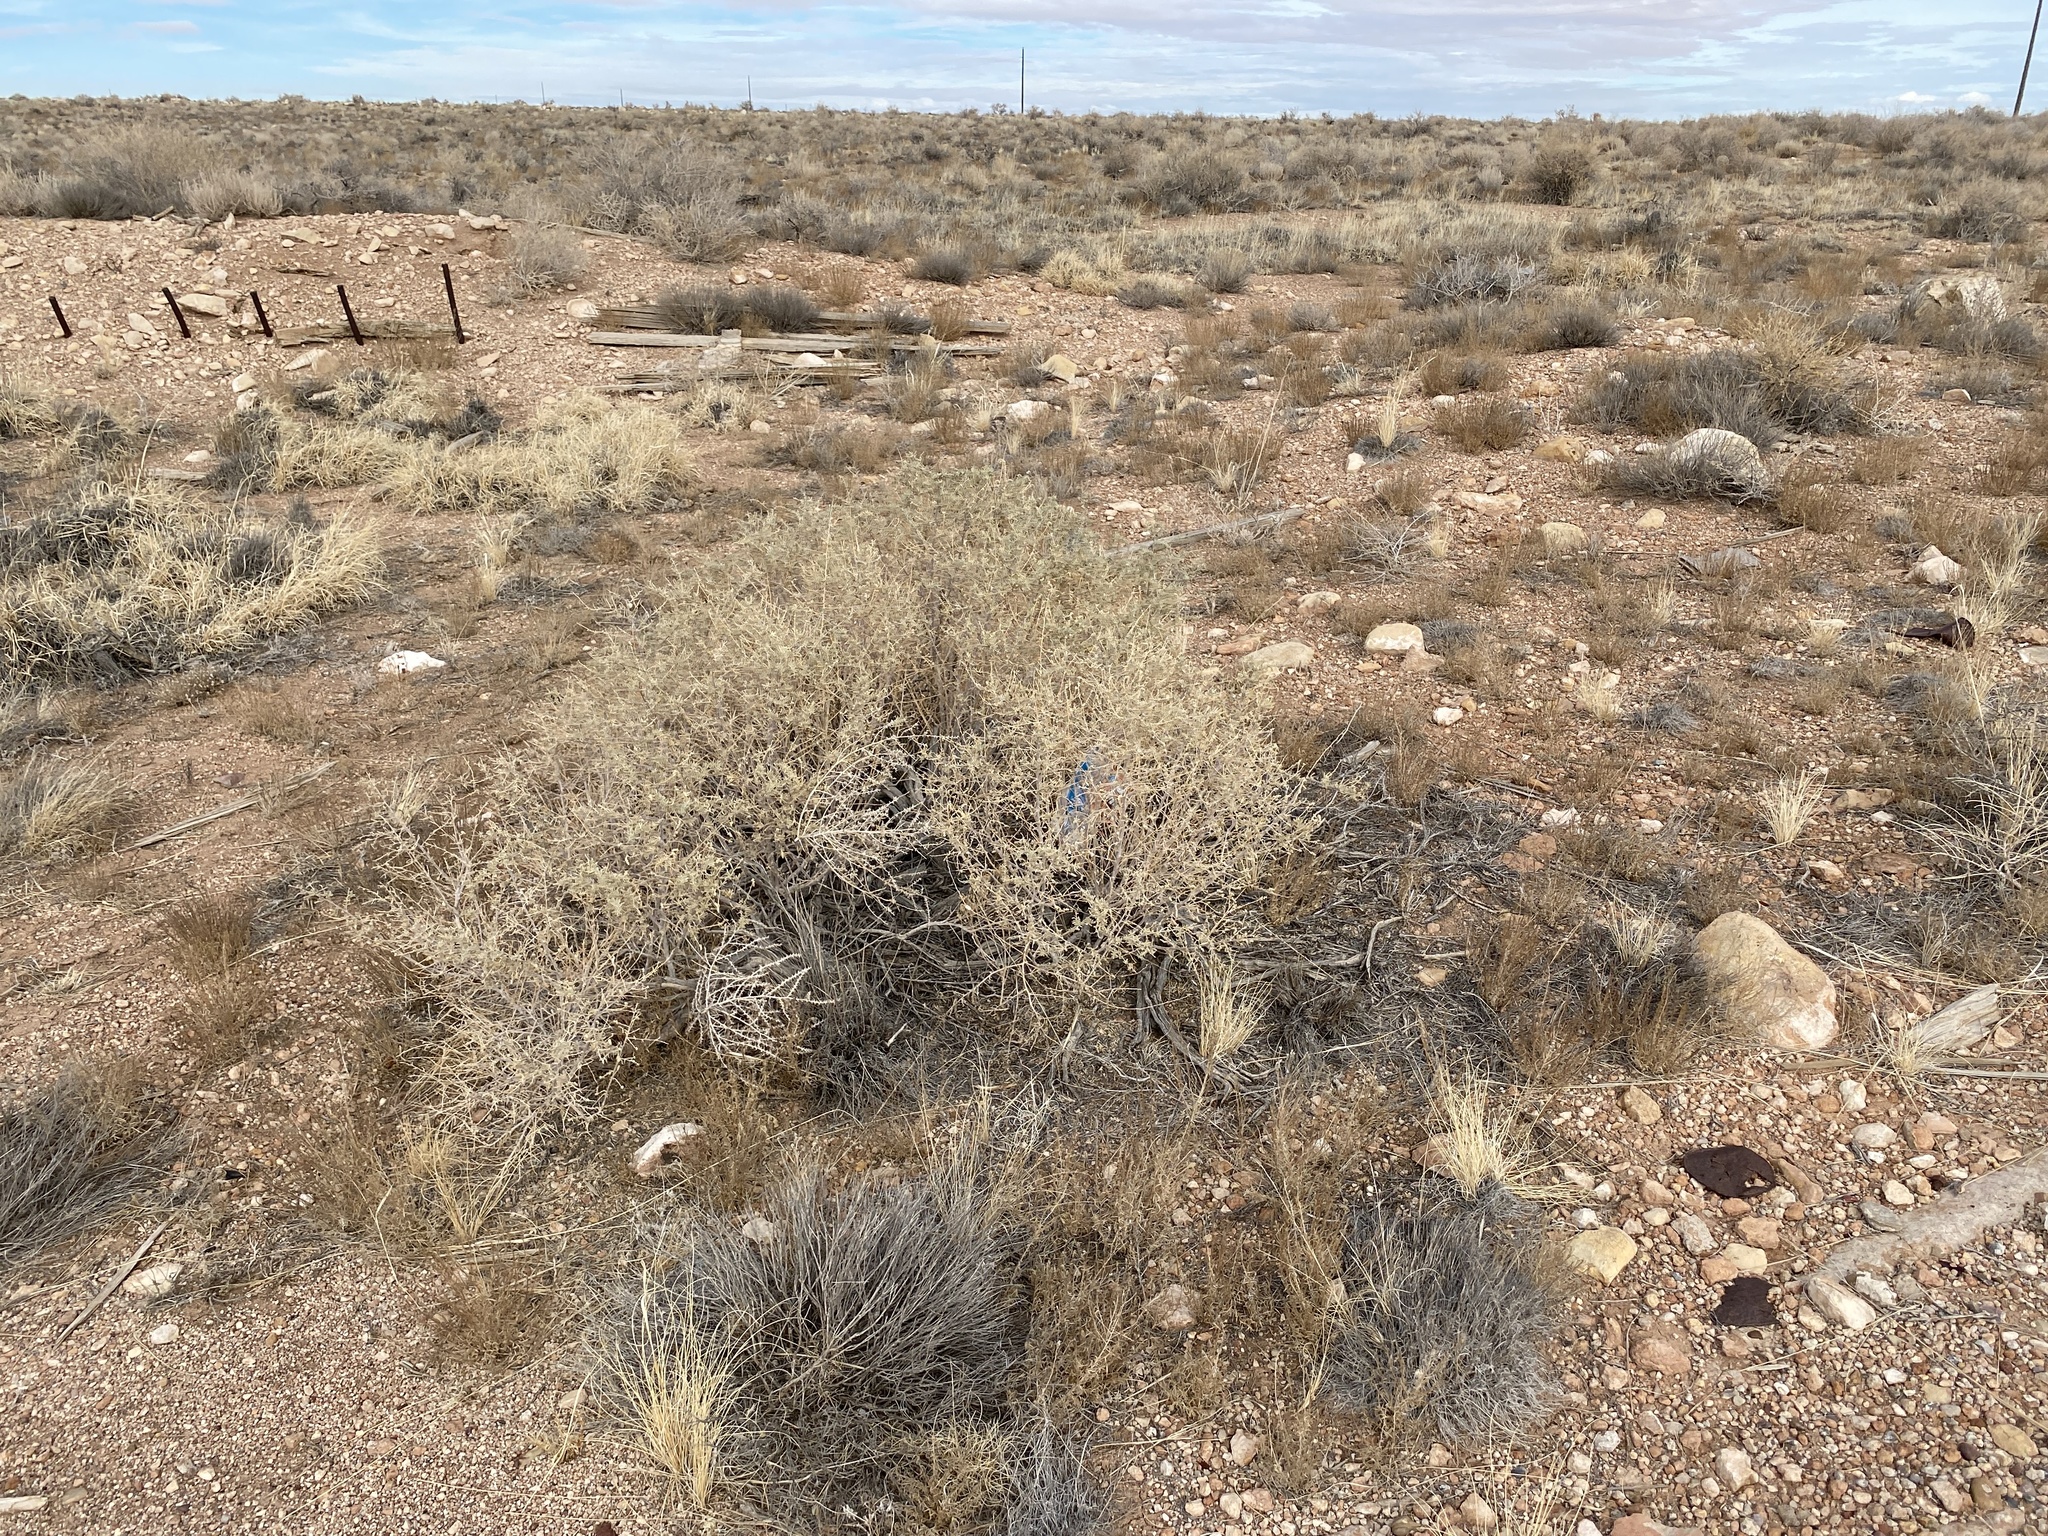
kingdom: Plantae
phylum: Tracheophyta
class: Magnoliopsida
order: Caryophyllales
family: Amaranthaceae
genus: Atriplex
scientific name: Atriplex canescens
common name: Four-wing saltbush
